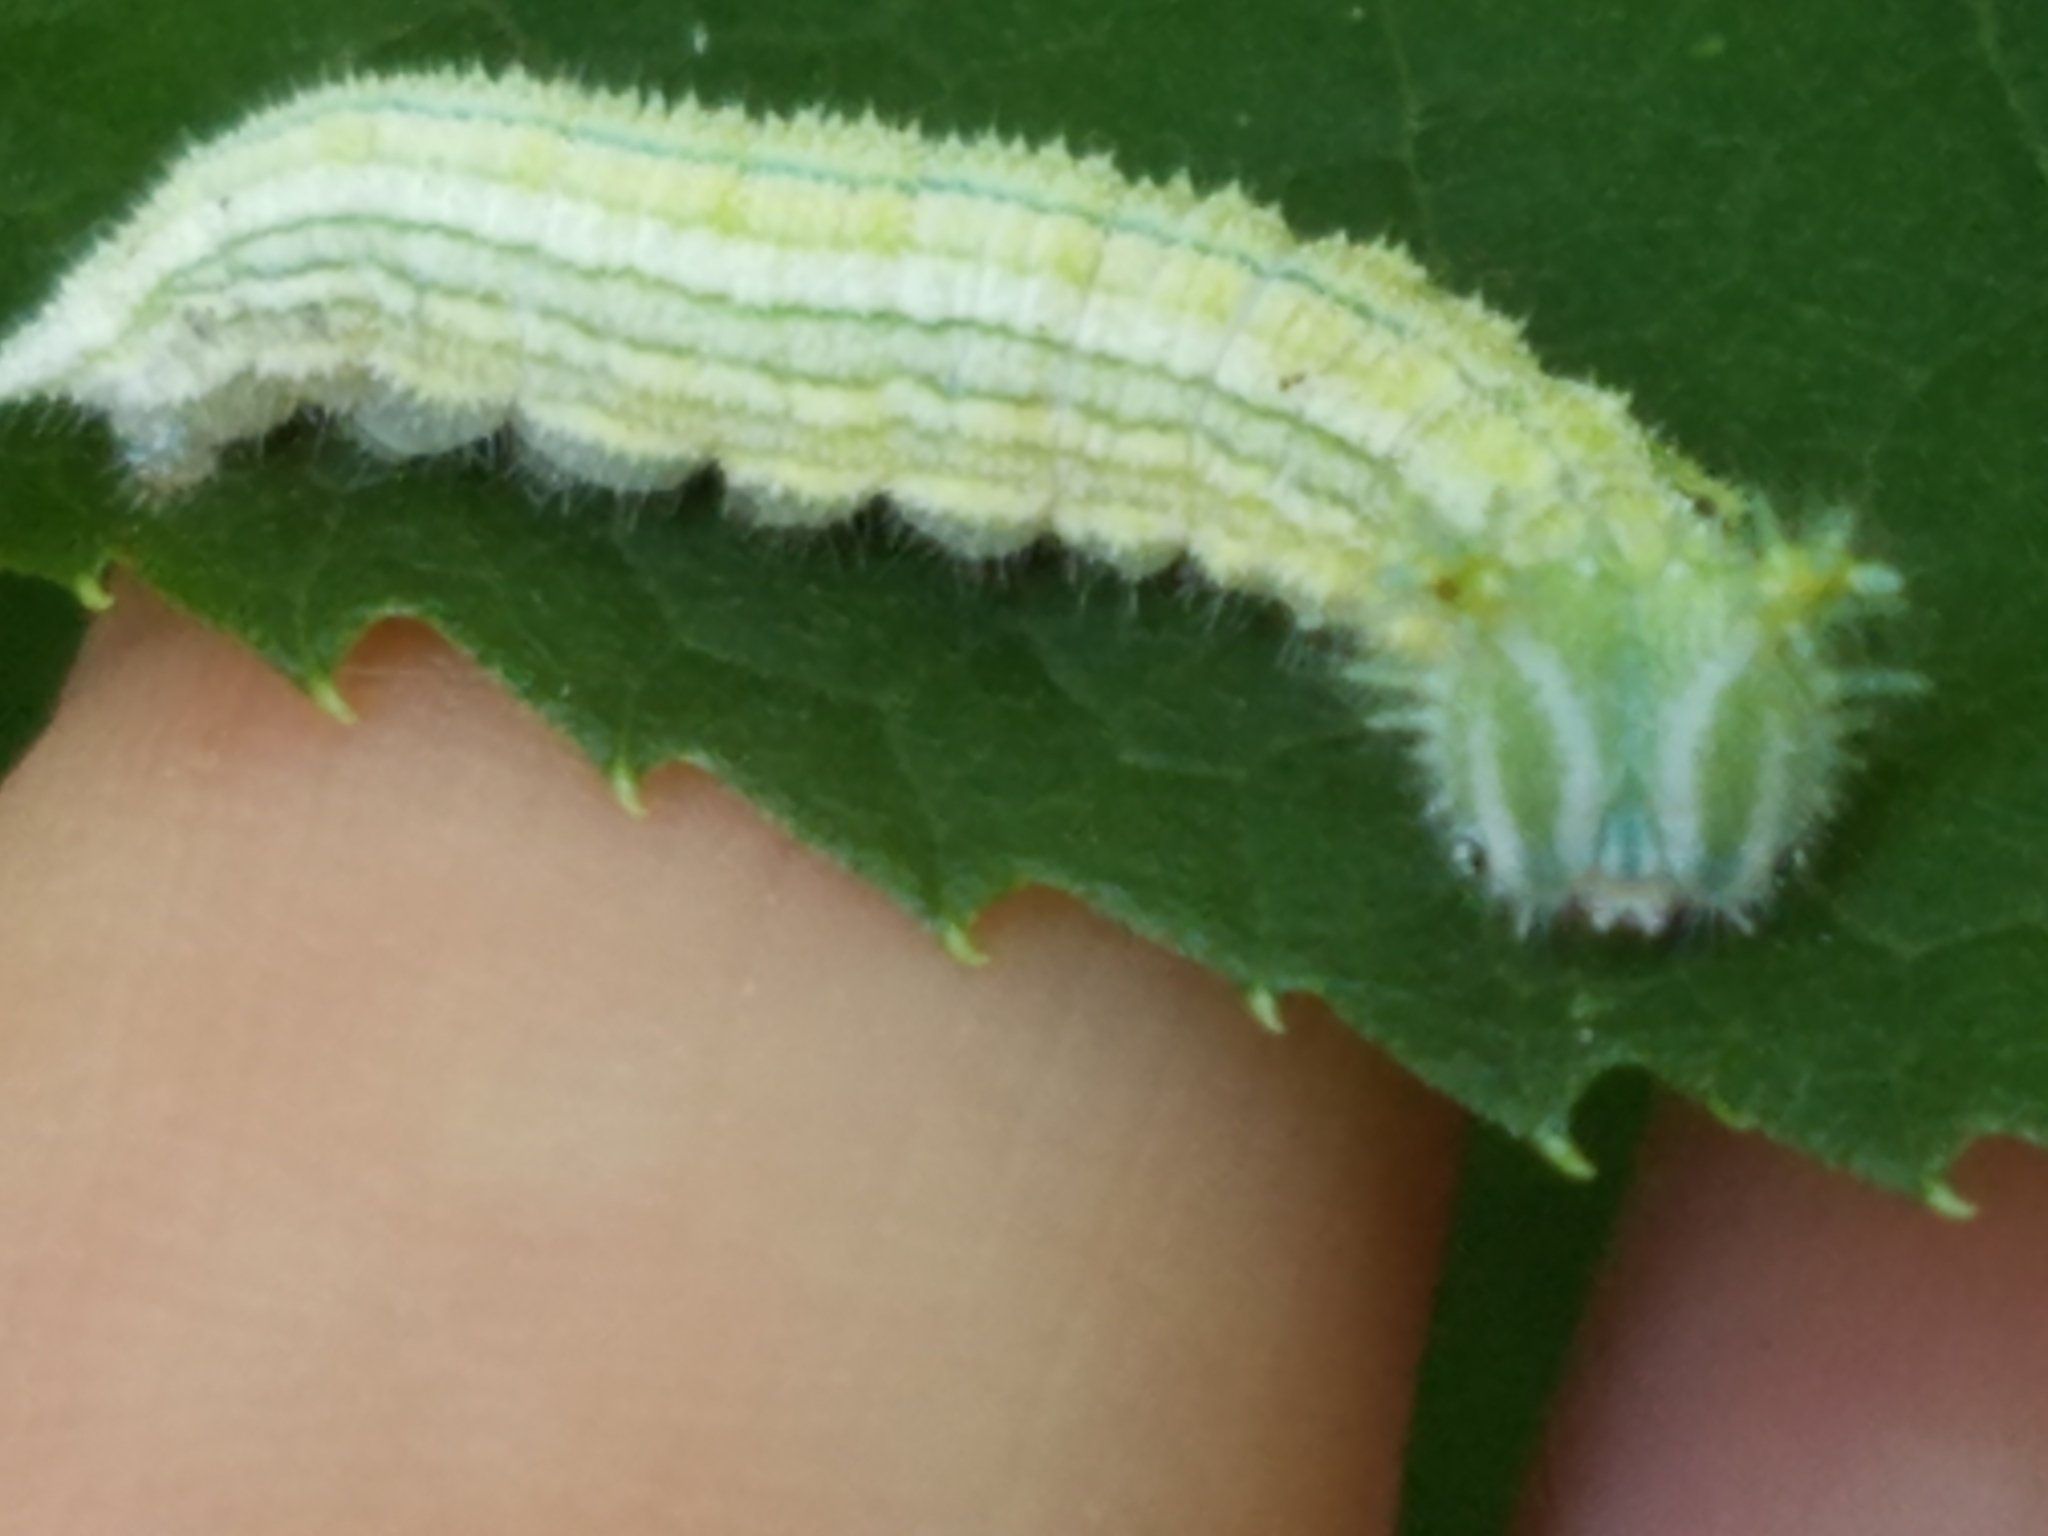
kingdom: Animalia
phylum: Arthropoda
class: Insecta
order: Lepidoptera
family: Nymphalidae
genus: Asterocampa
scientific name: Asterocampa clyton
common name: Tawny emperor
